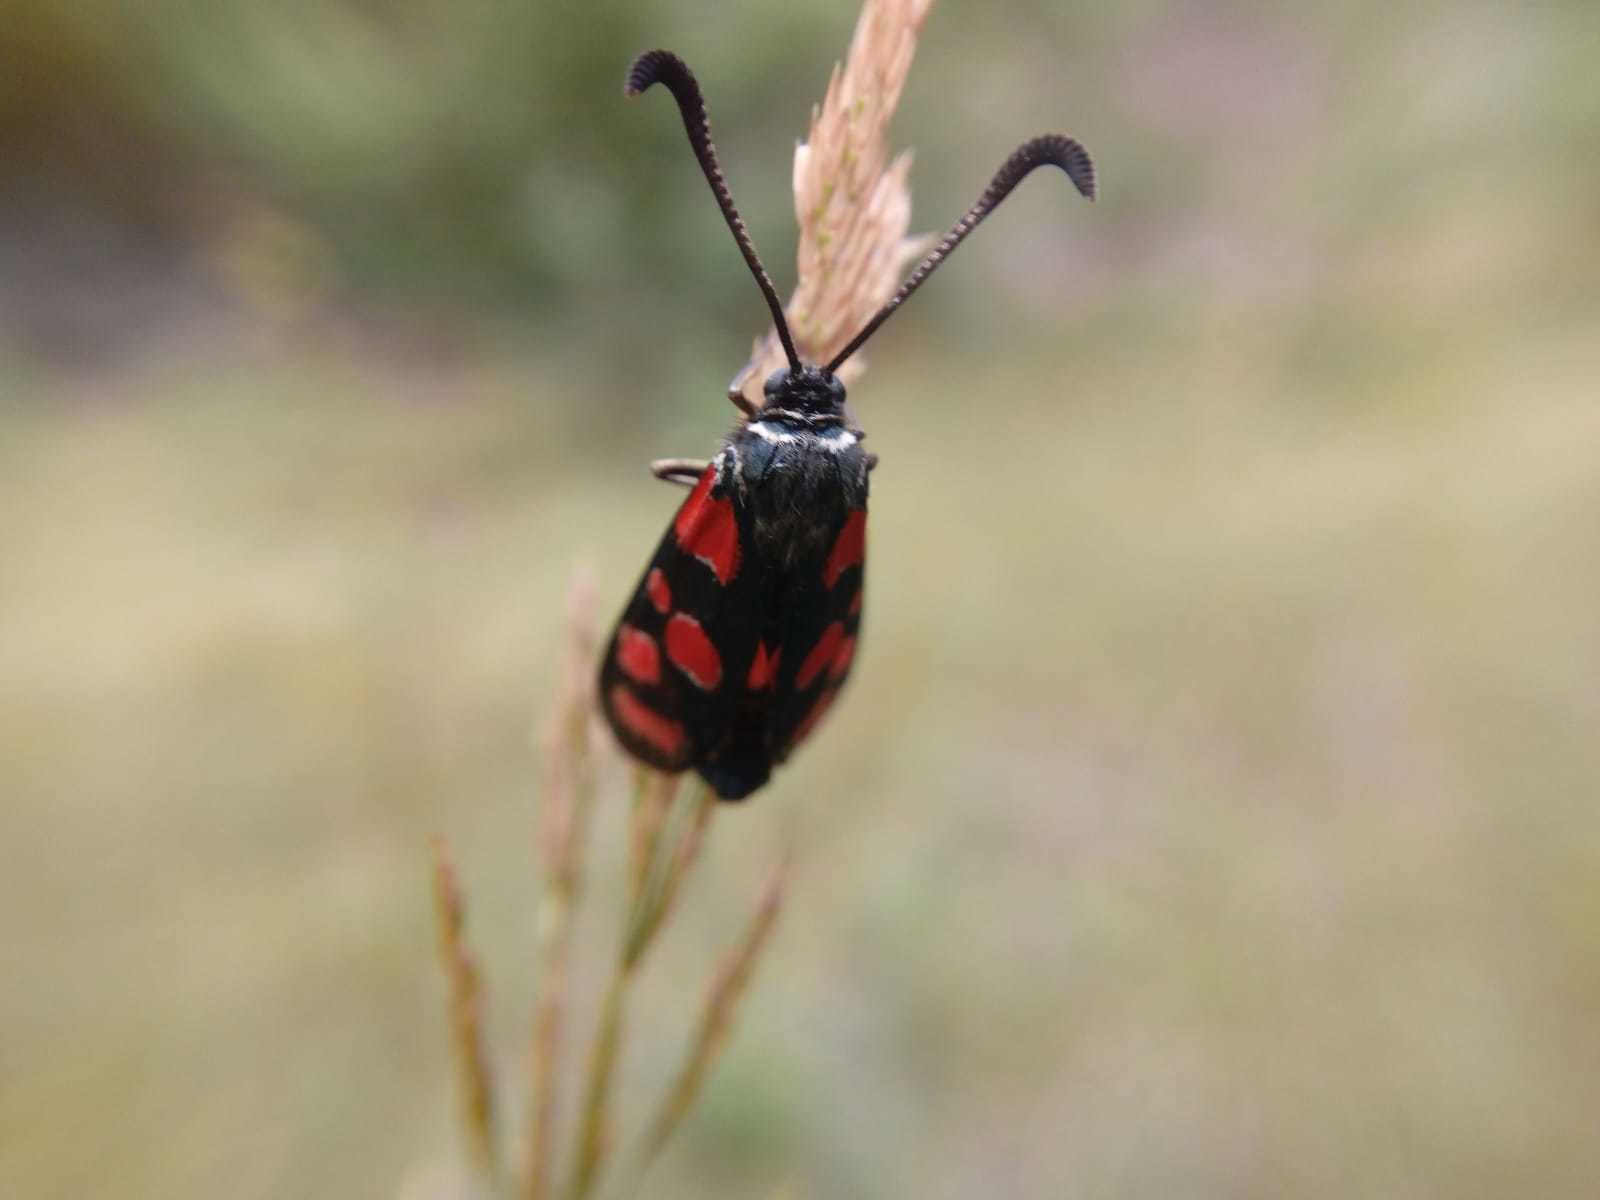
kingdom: Animalia
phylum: Arthropoda
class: Insecta
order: Lepidoptera
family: Zygaenidae
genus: Zygaena
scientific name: Zygaena carniolica
